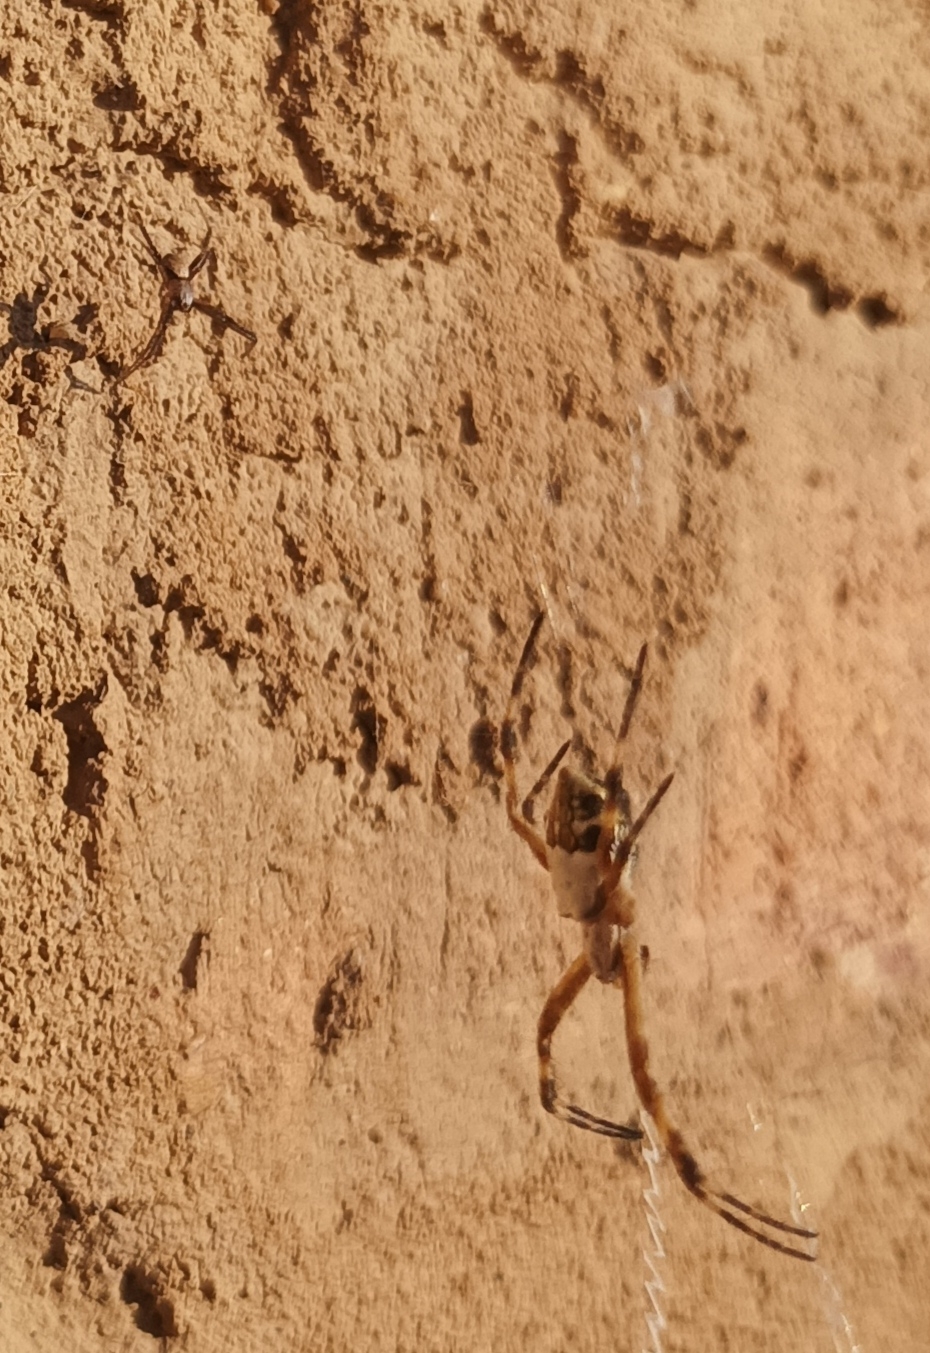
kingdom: Animalia
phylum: Arthropoda
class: Arachnida
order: Araneae
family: Araneidae
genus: Argiope
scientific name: Argiope argentata
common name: Orb weavers
